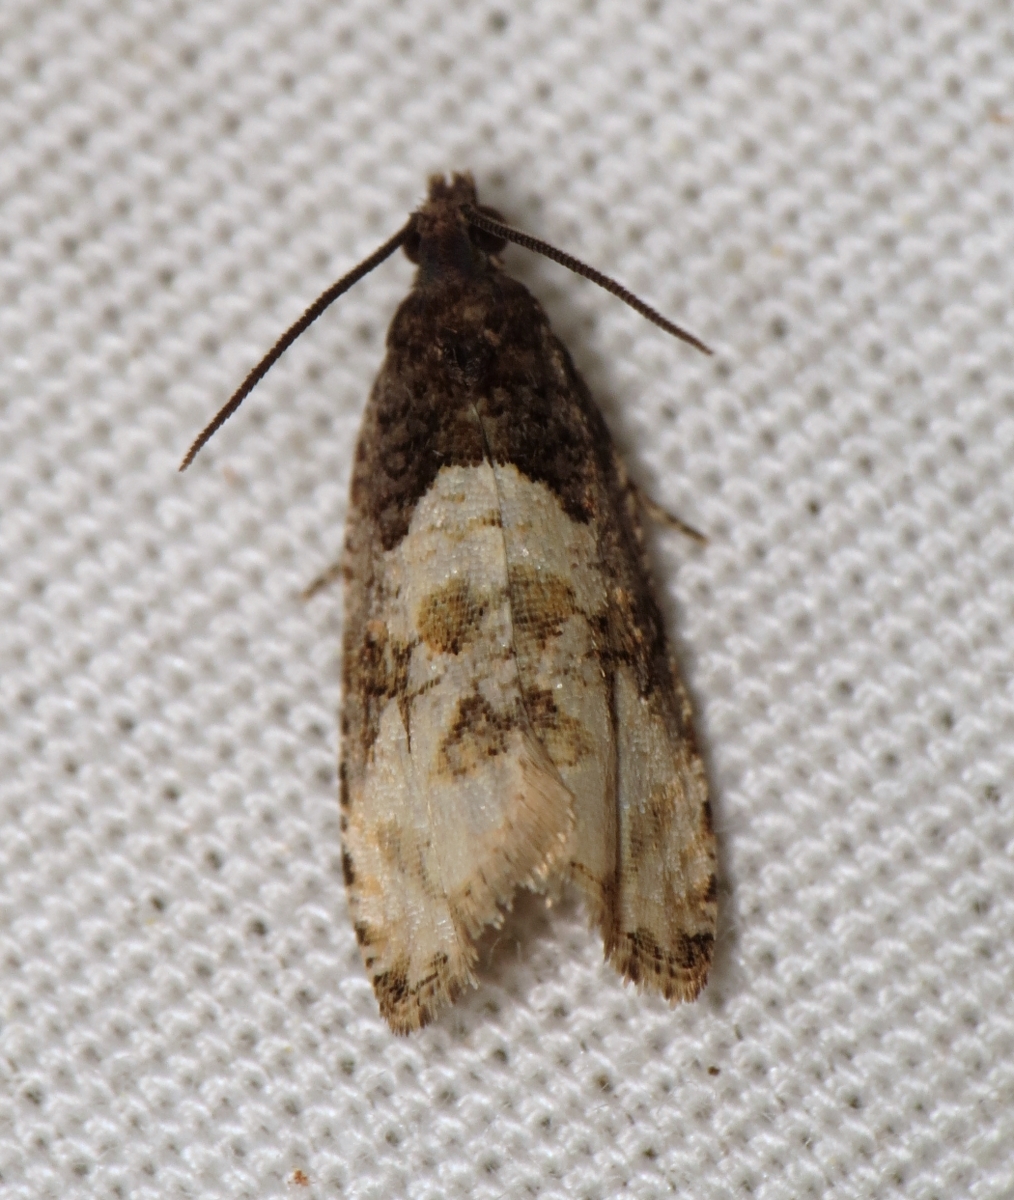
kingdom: Animalia
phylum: Arthropoda
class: Insecta
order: Lepidoptera
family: Tortricidae
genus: Hulda
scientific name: Hulda impudens
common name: Impudent hulda moth
